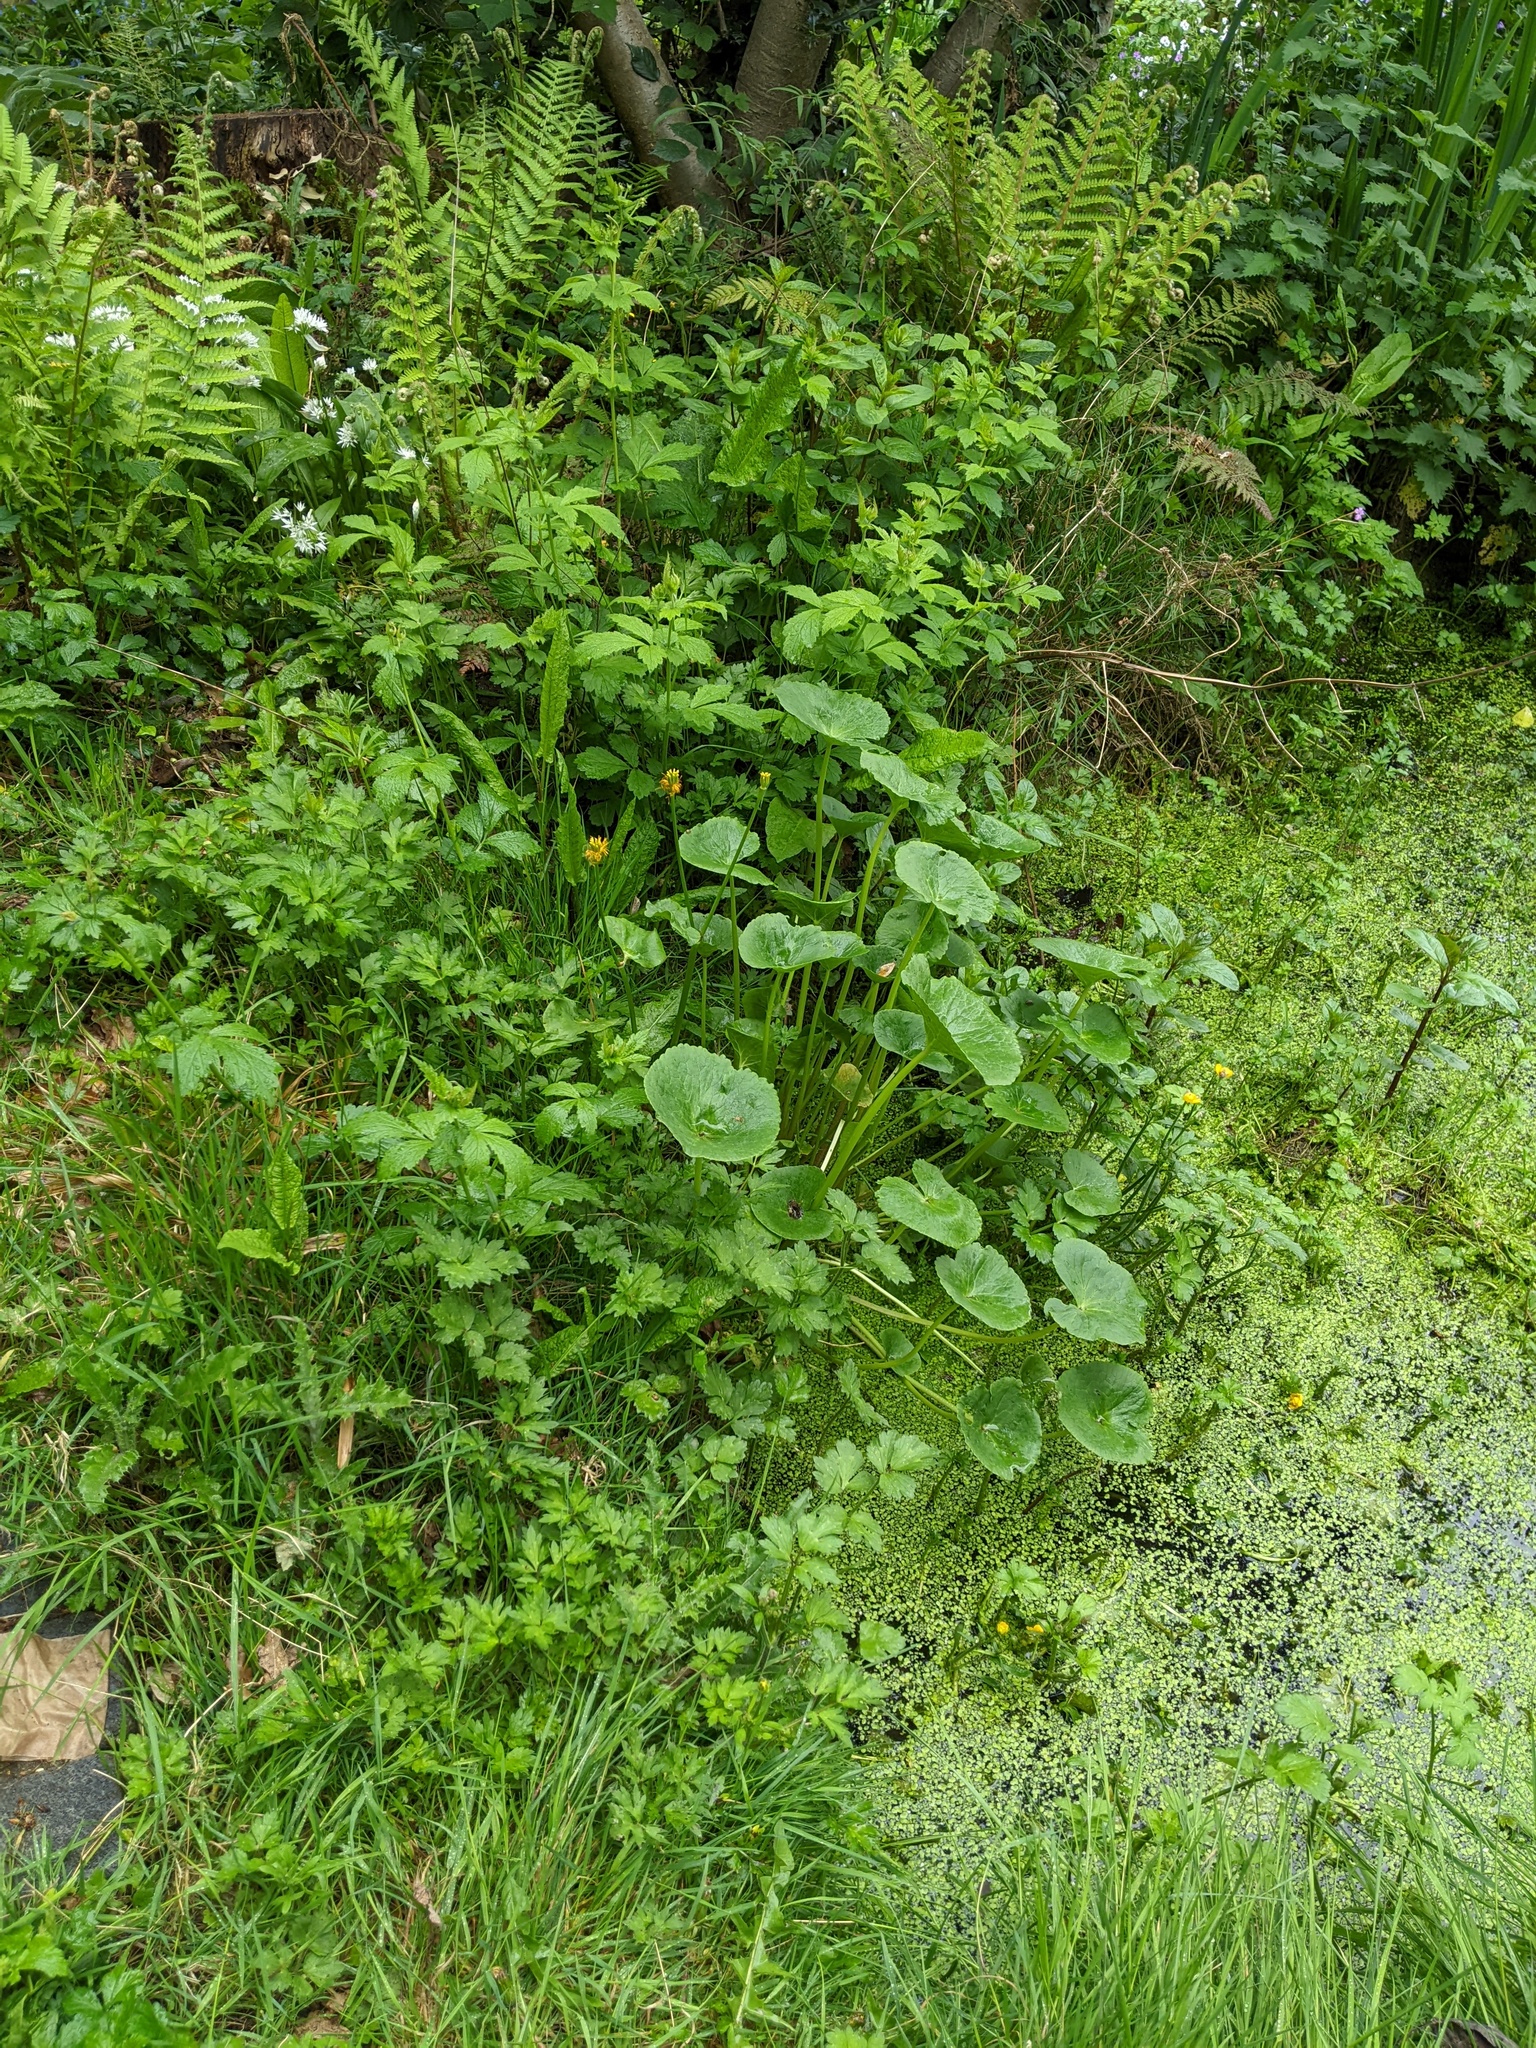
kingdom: Plantae
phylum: Tracheophyta
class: Magnoliopsida
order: Ranunculales
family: Ranunculaceae
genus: Caltha
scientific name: Caltha palustris
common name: Marsh marigold
